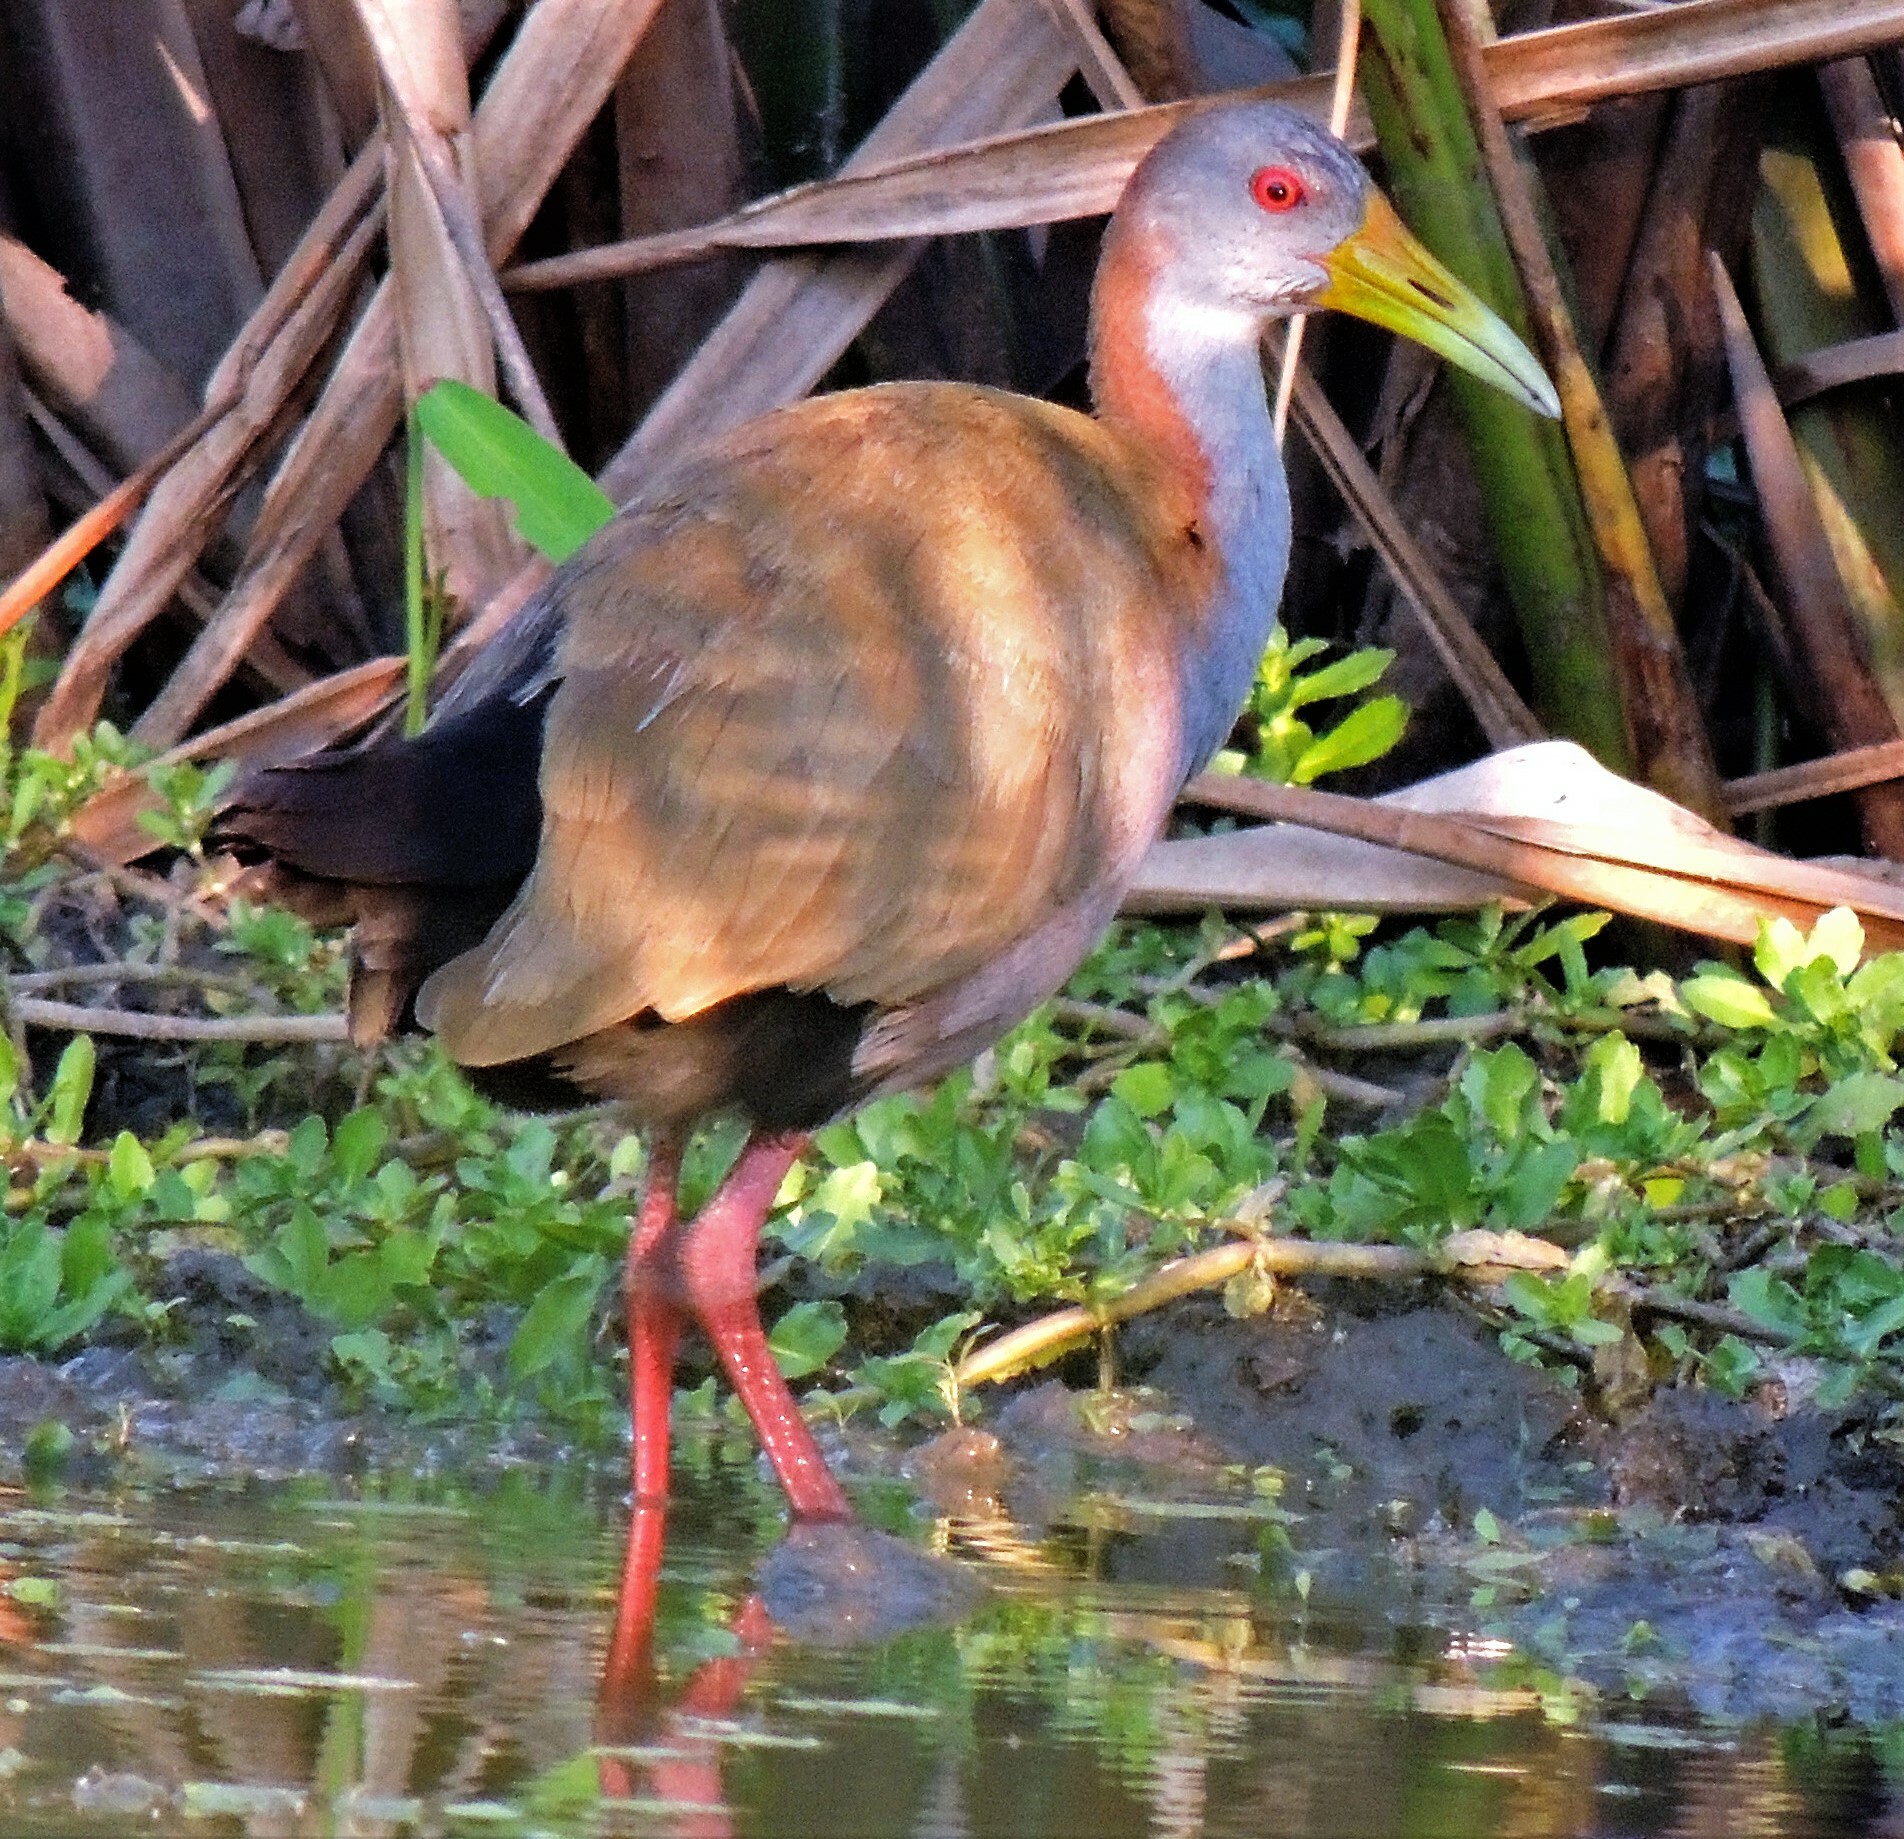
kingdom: Animalia
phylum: Chordata
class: Aves
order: Gruiformes
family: Rallidae
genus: Aramides
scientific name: Aramides ypecaha
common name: Giant wood rail
